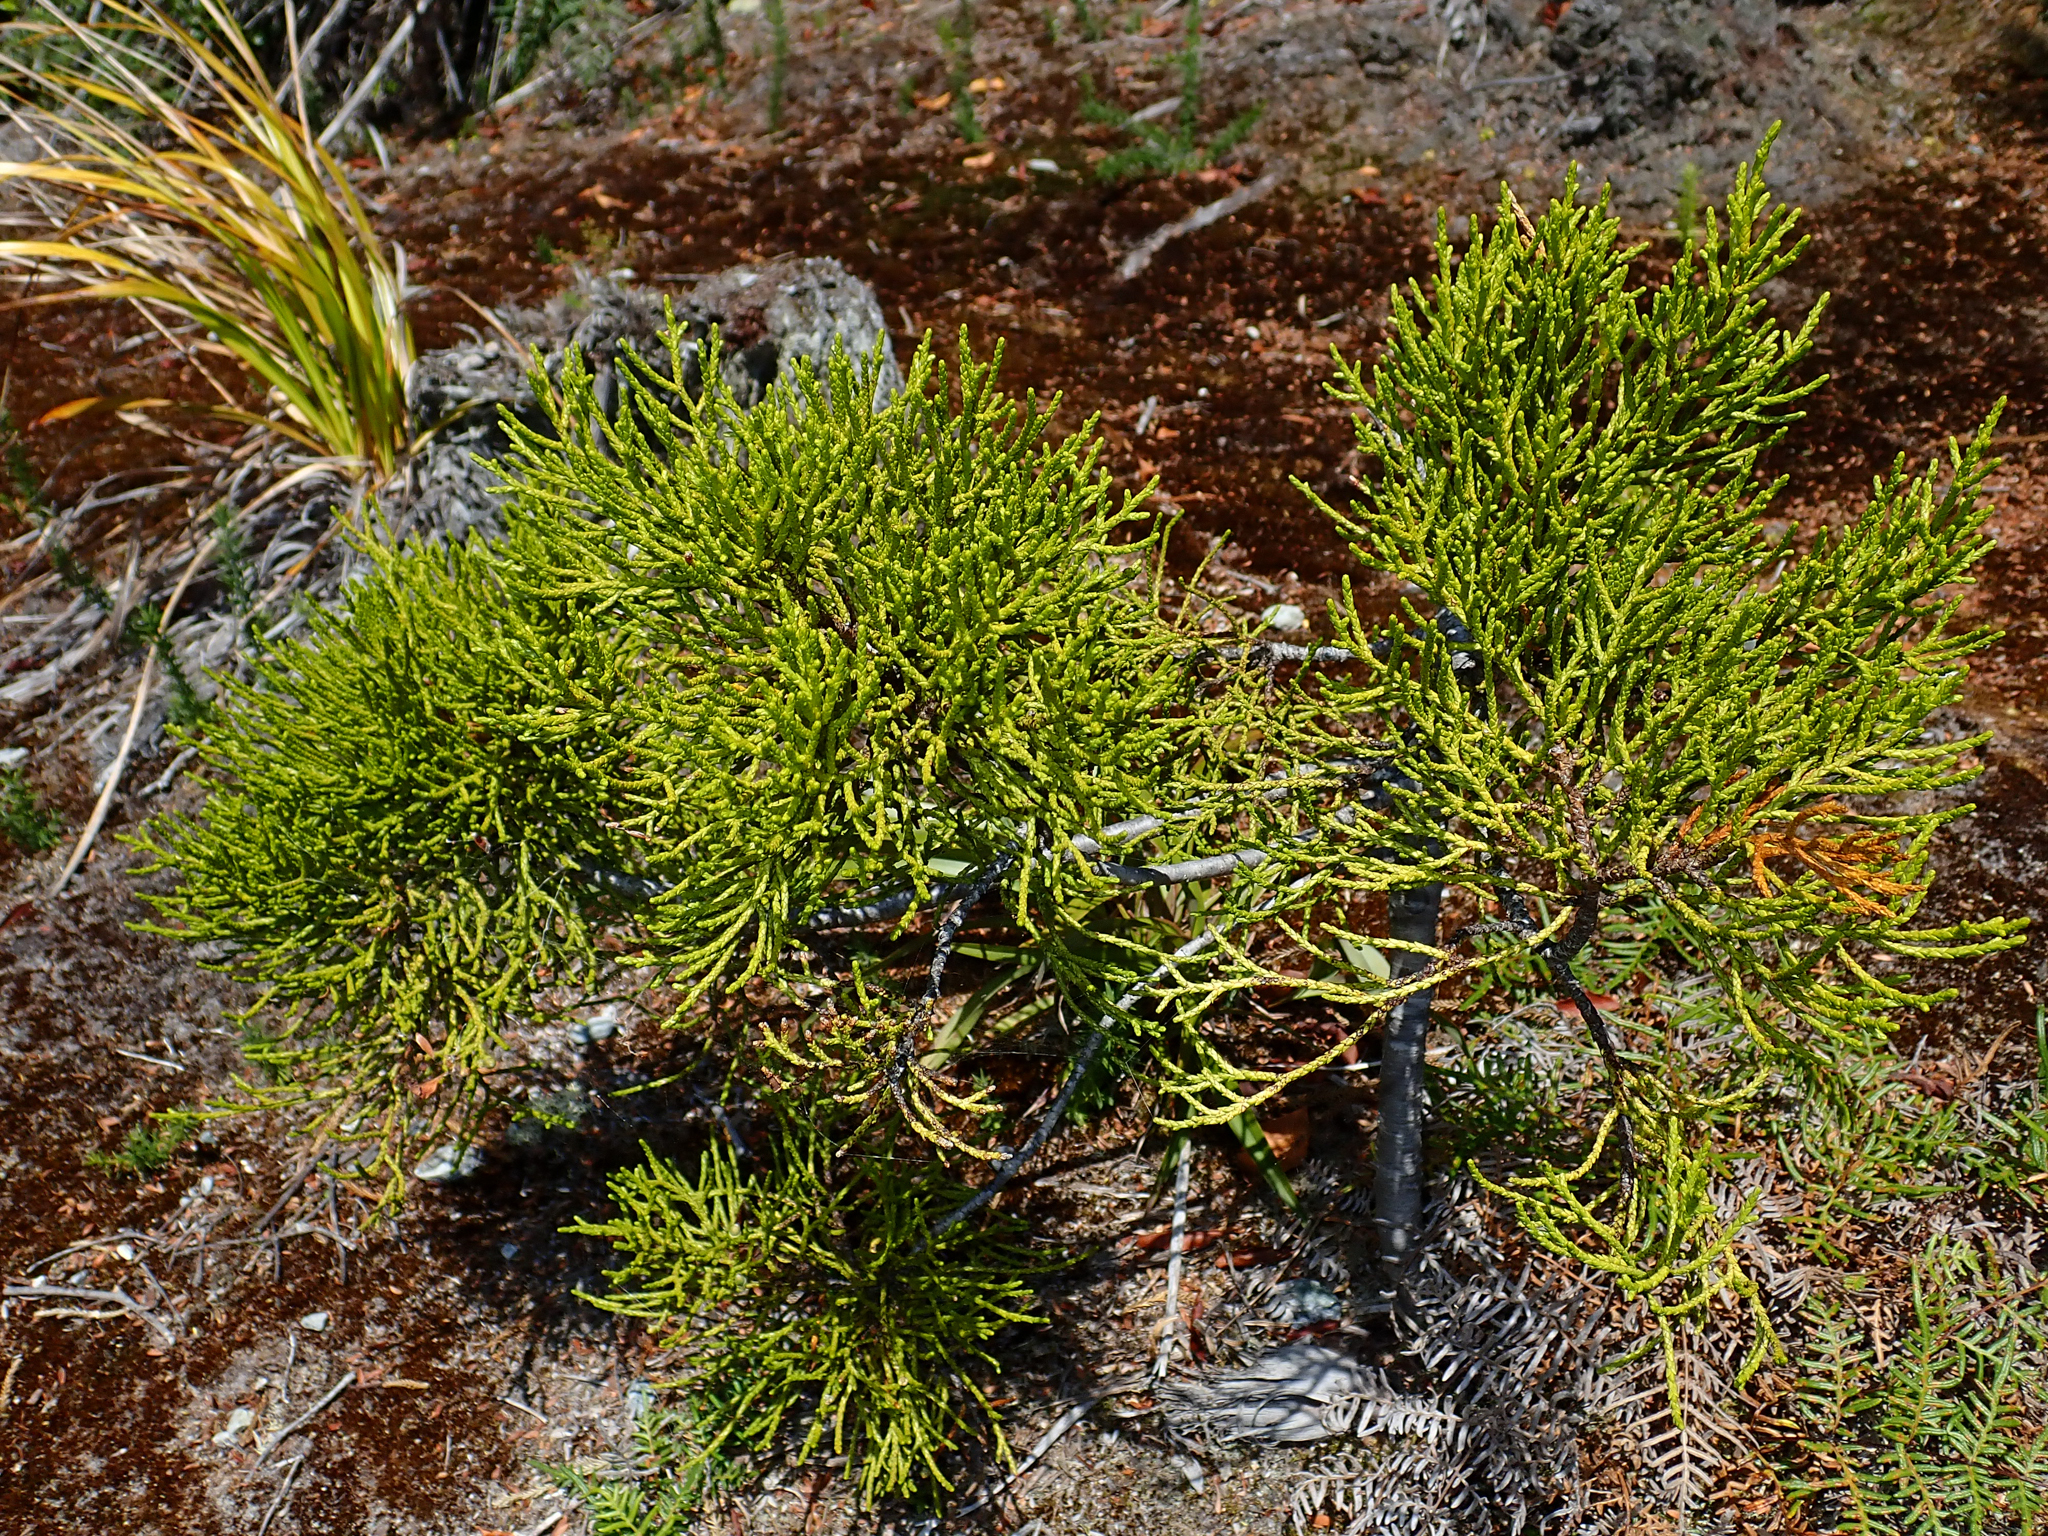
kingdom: Plantae
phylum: Tracheophyta
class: Pinopsida
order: Pinales
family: Podocarpaceae
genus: Manoao
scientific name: Manoao colensoi
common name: Silver pine
